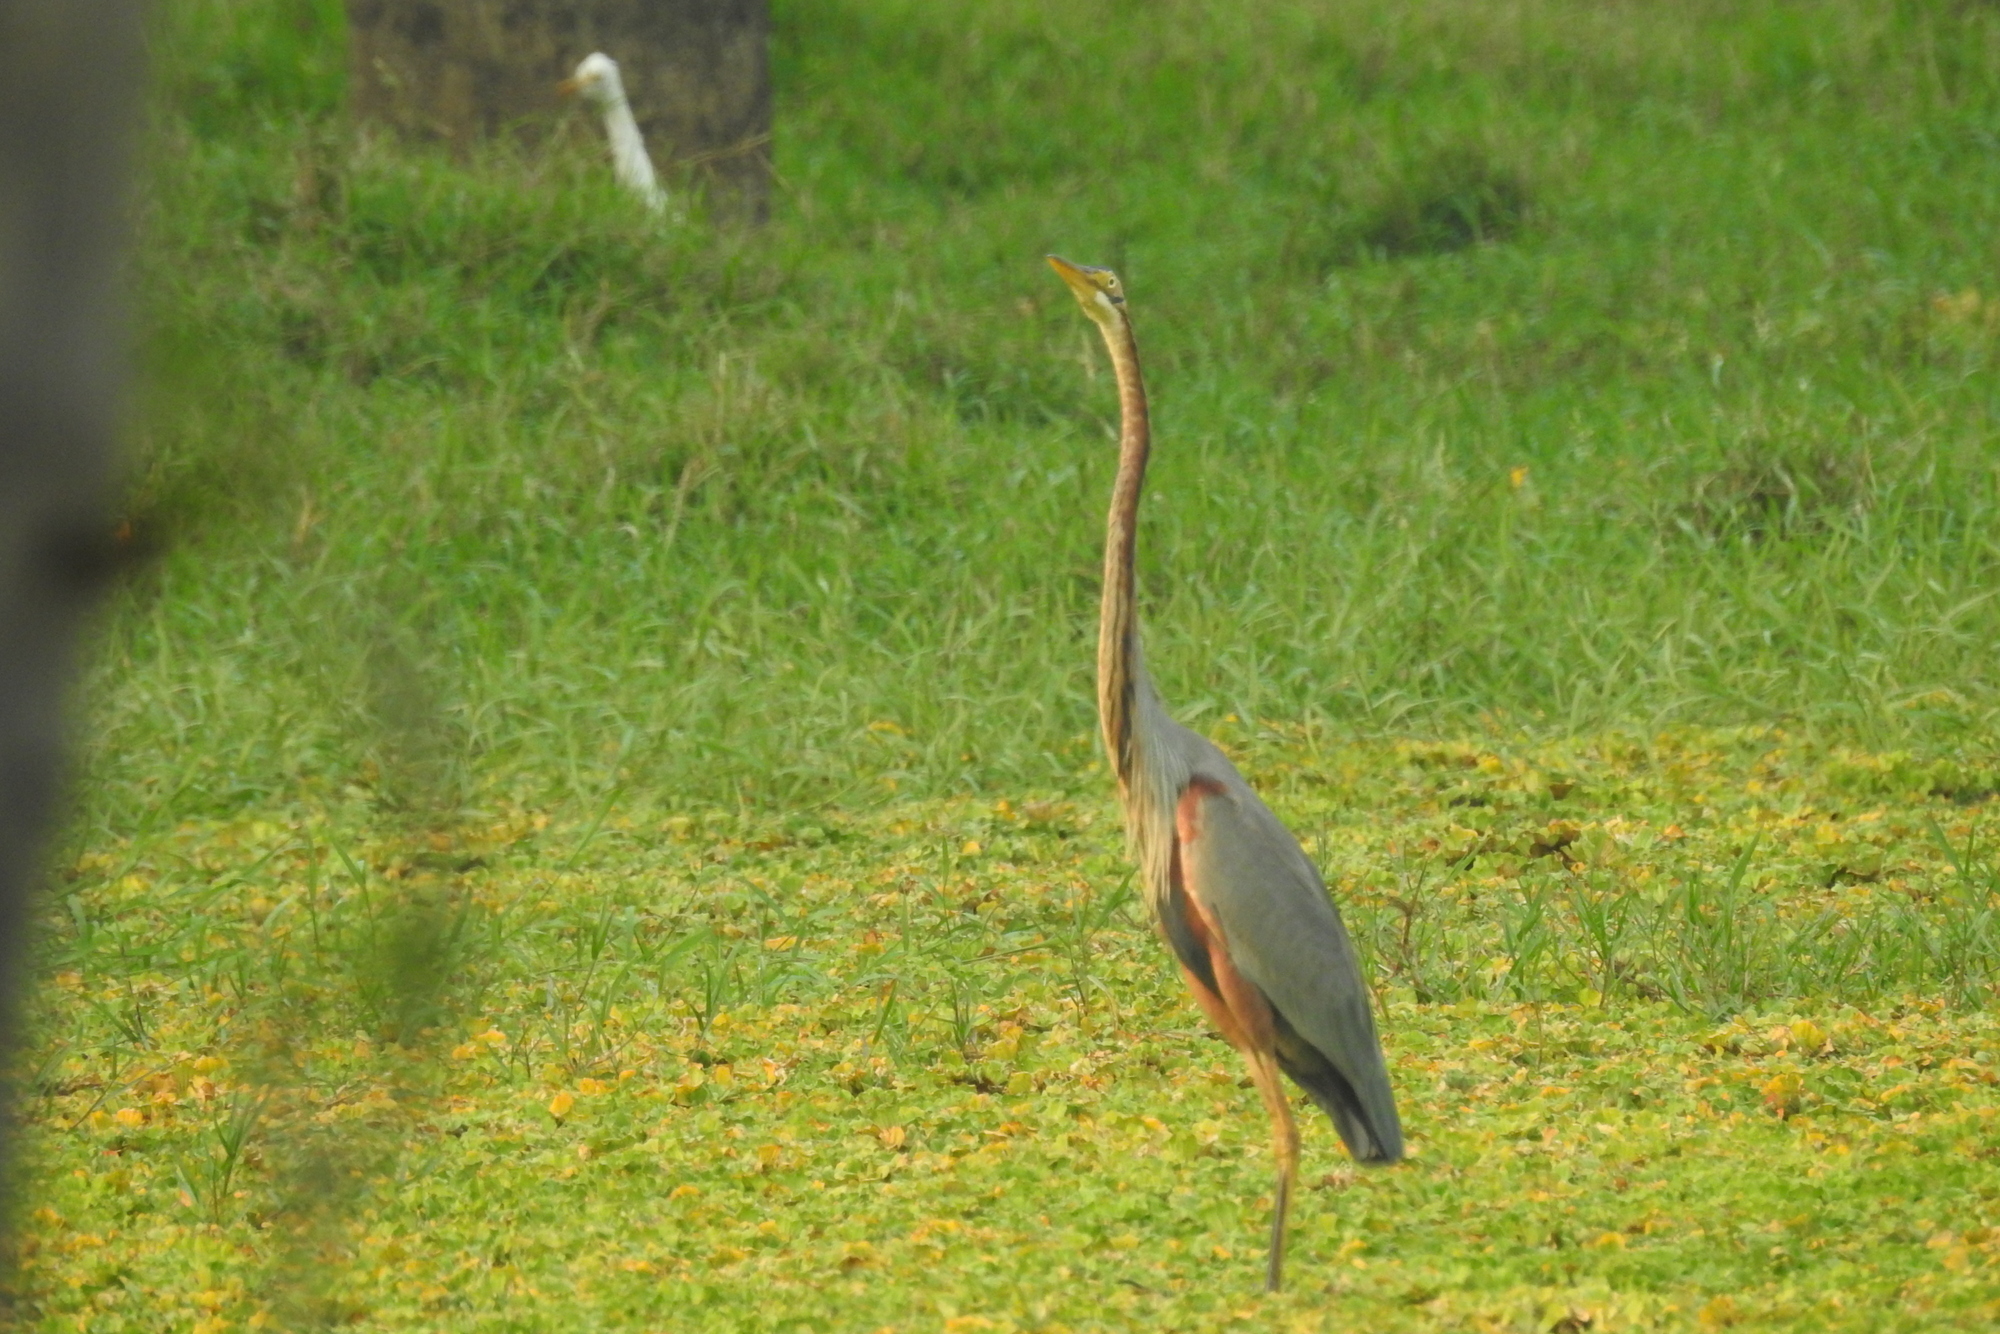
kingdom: Animalia
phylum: Chordata
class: Aves
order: Pelecaniformes
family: Ardeidae
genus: Ardea
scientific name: Ardea purpurea
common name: Purple heron
